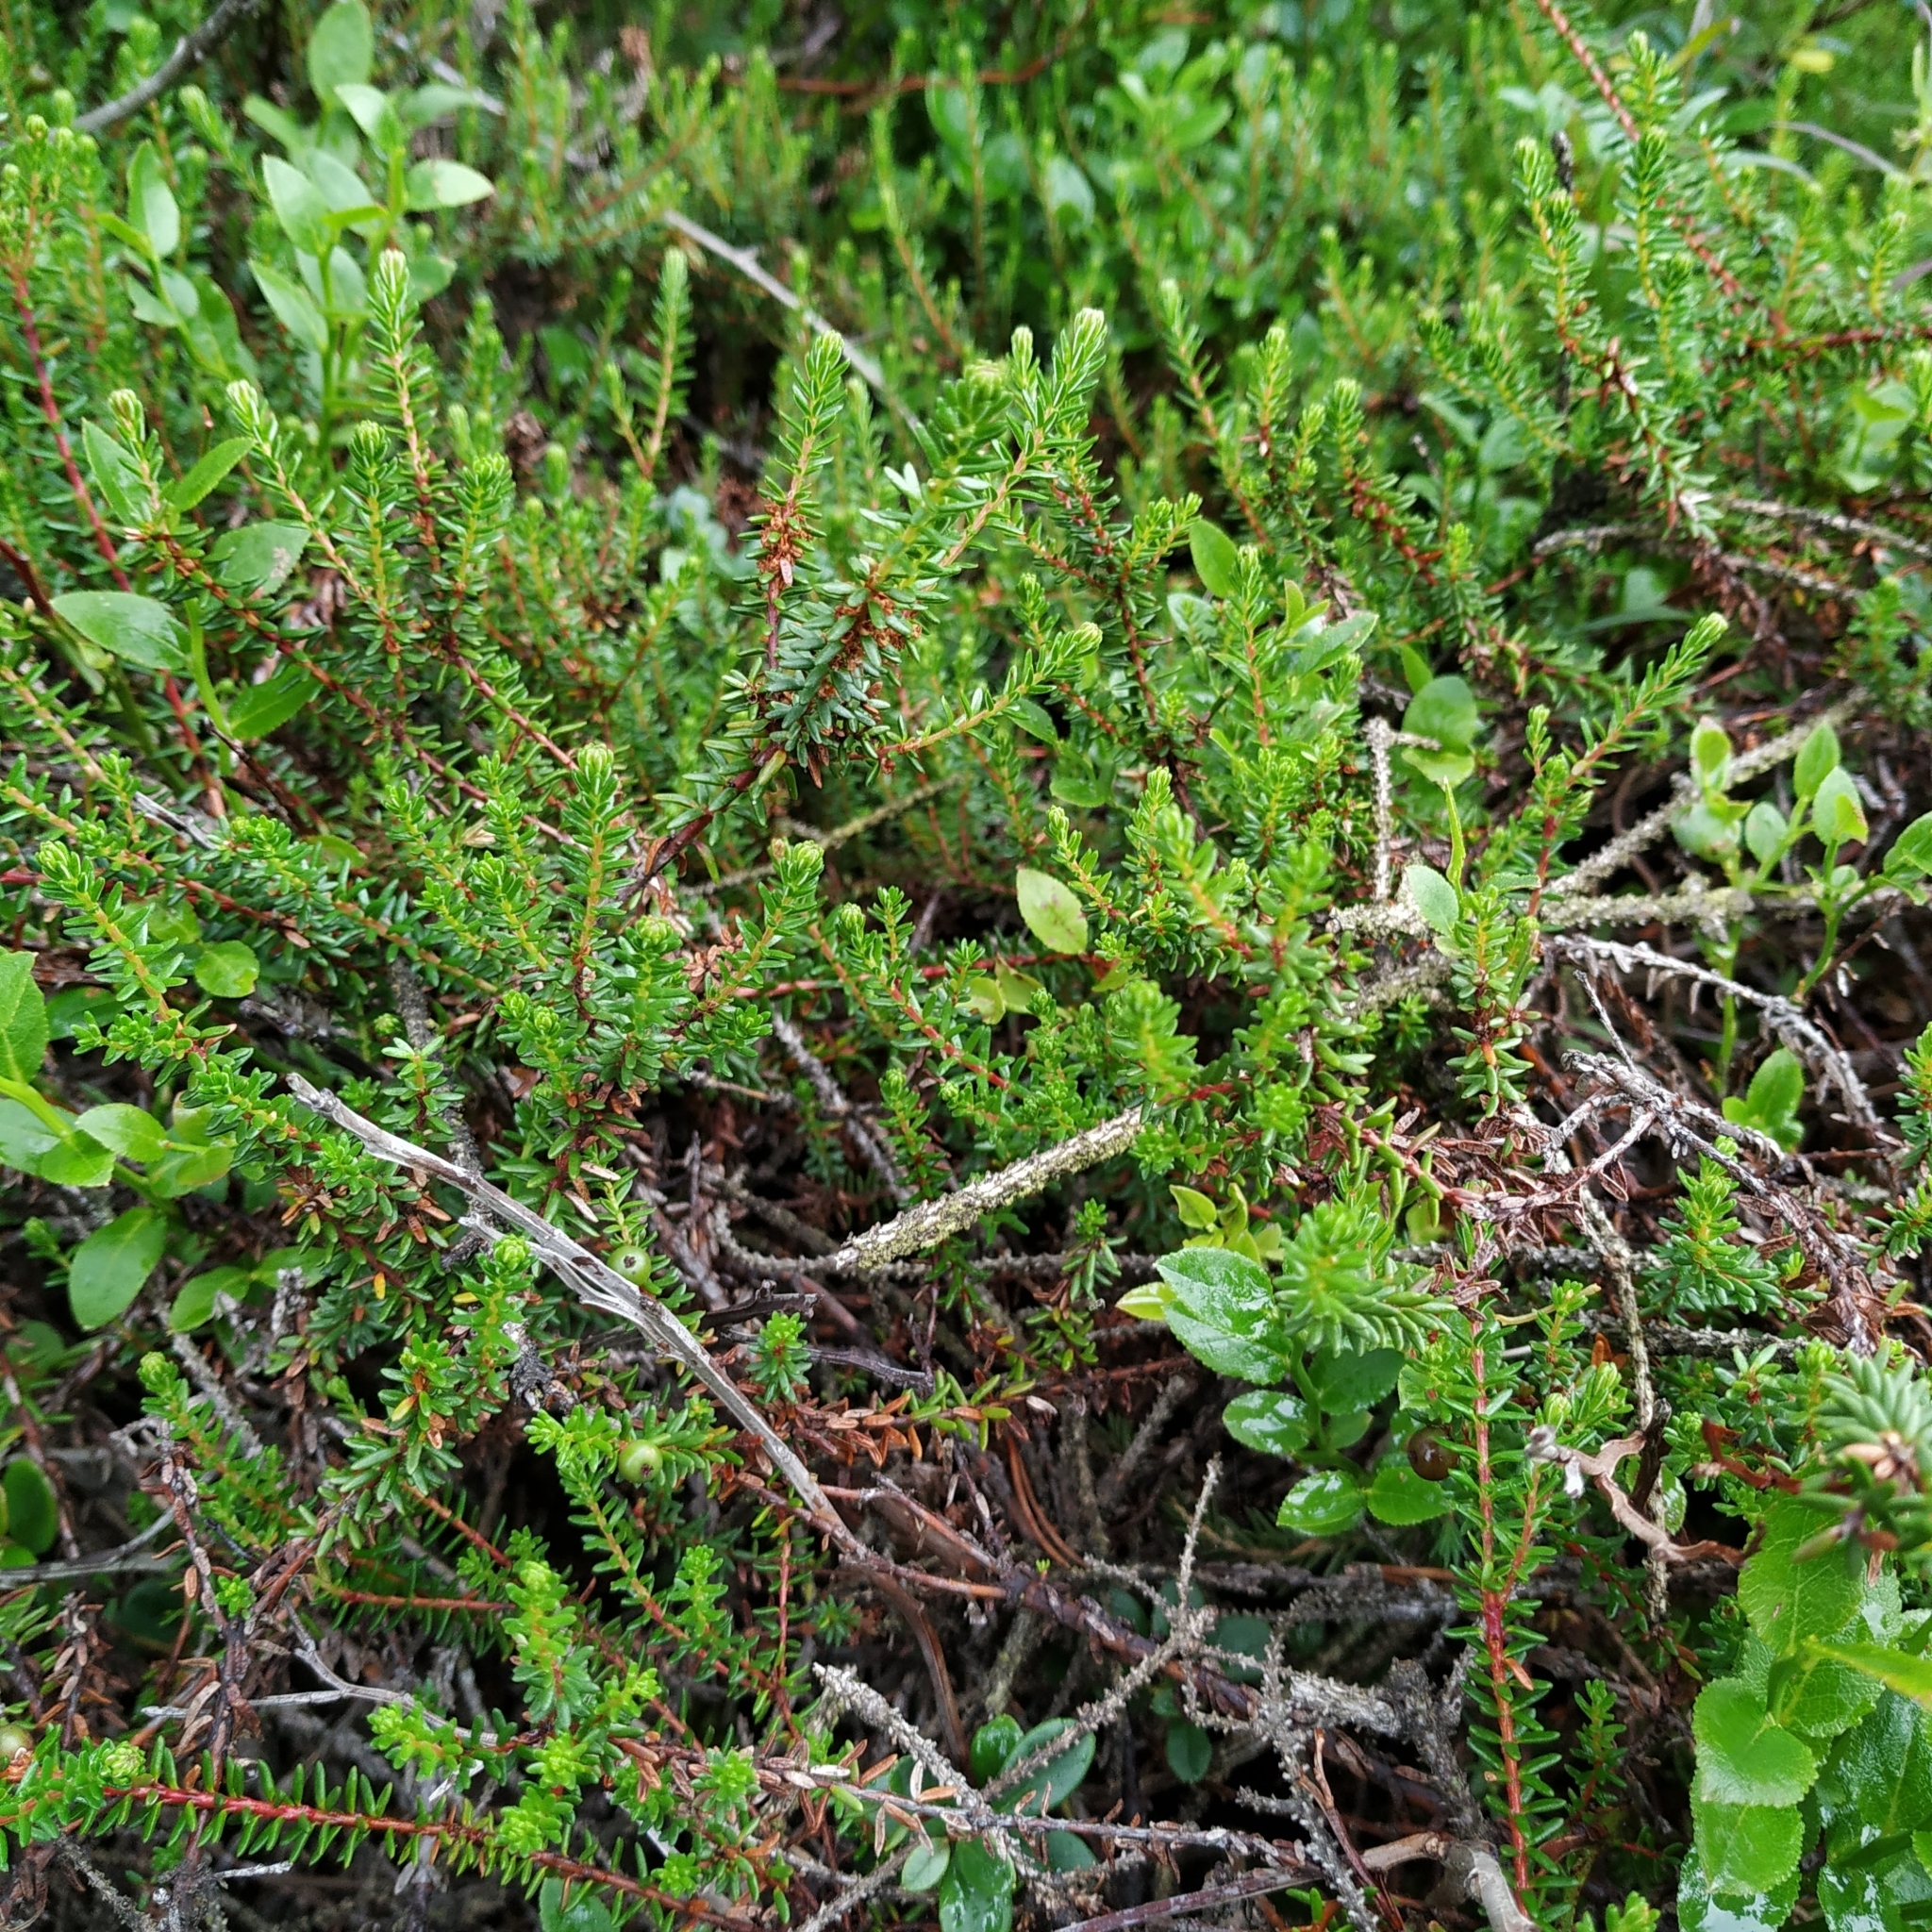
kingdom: Plantae
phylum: Tracheophyta
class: Magnoliopsida
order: Ericales
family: Ericaceae
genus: Empetrum
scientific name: Empetrum nigrum
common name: Black crowberry
